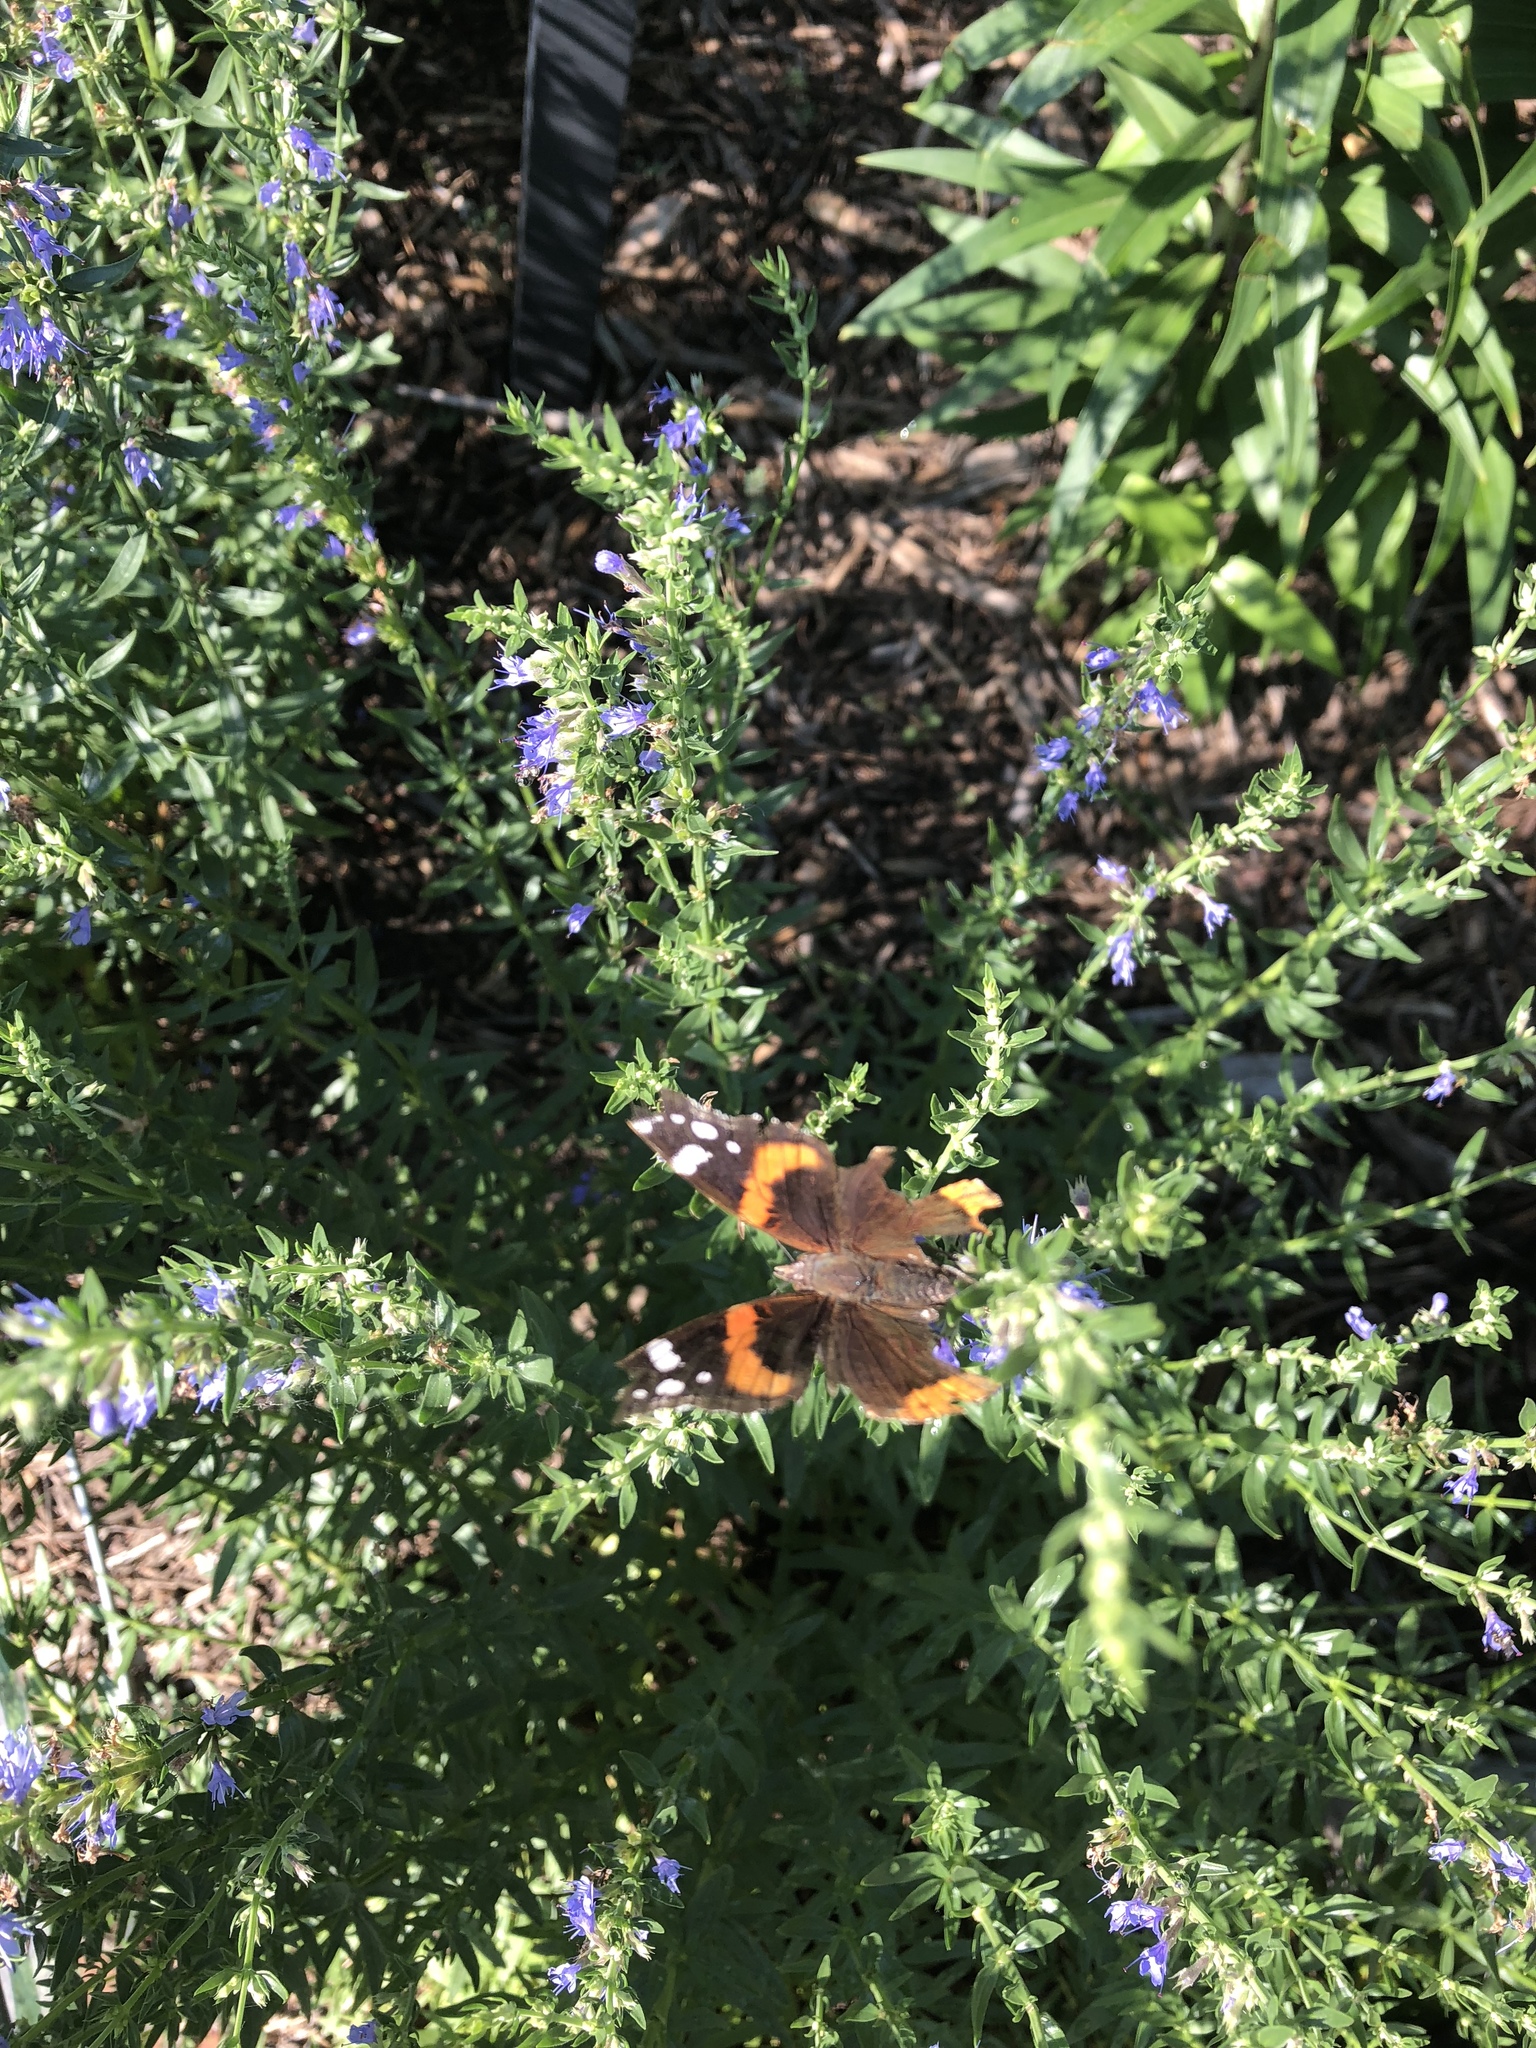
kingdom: Animalia
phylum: Arthropoda
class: Insecta
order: Lepidoptera
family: Nymphalidae
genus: Vanessa
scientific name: Vanessa atalanta
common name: Red admiral
